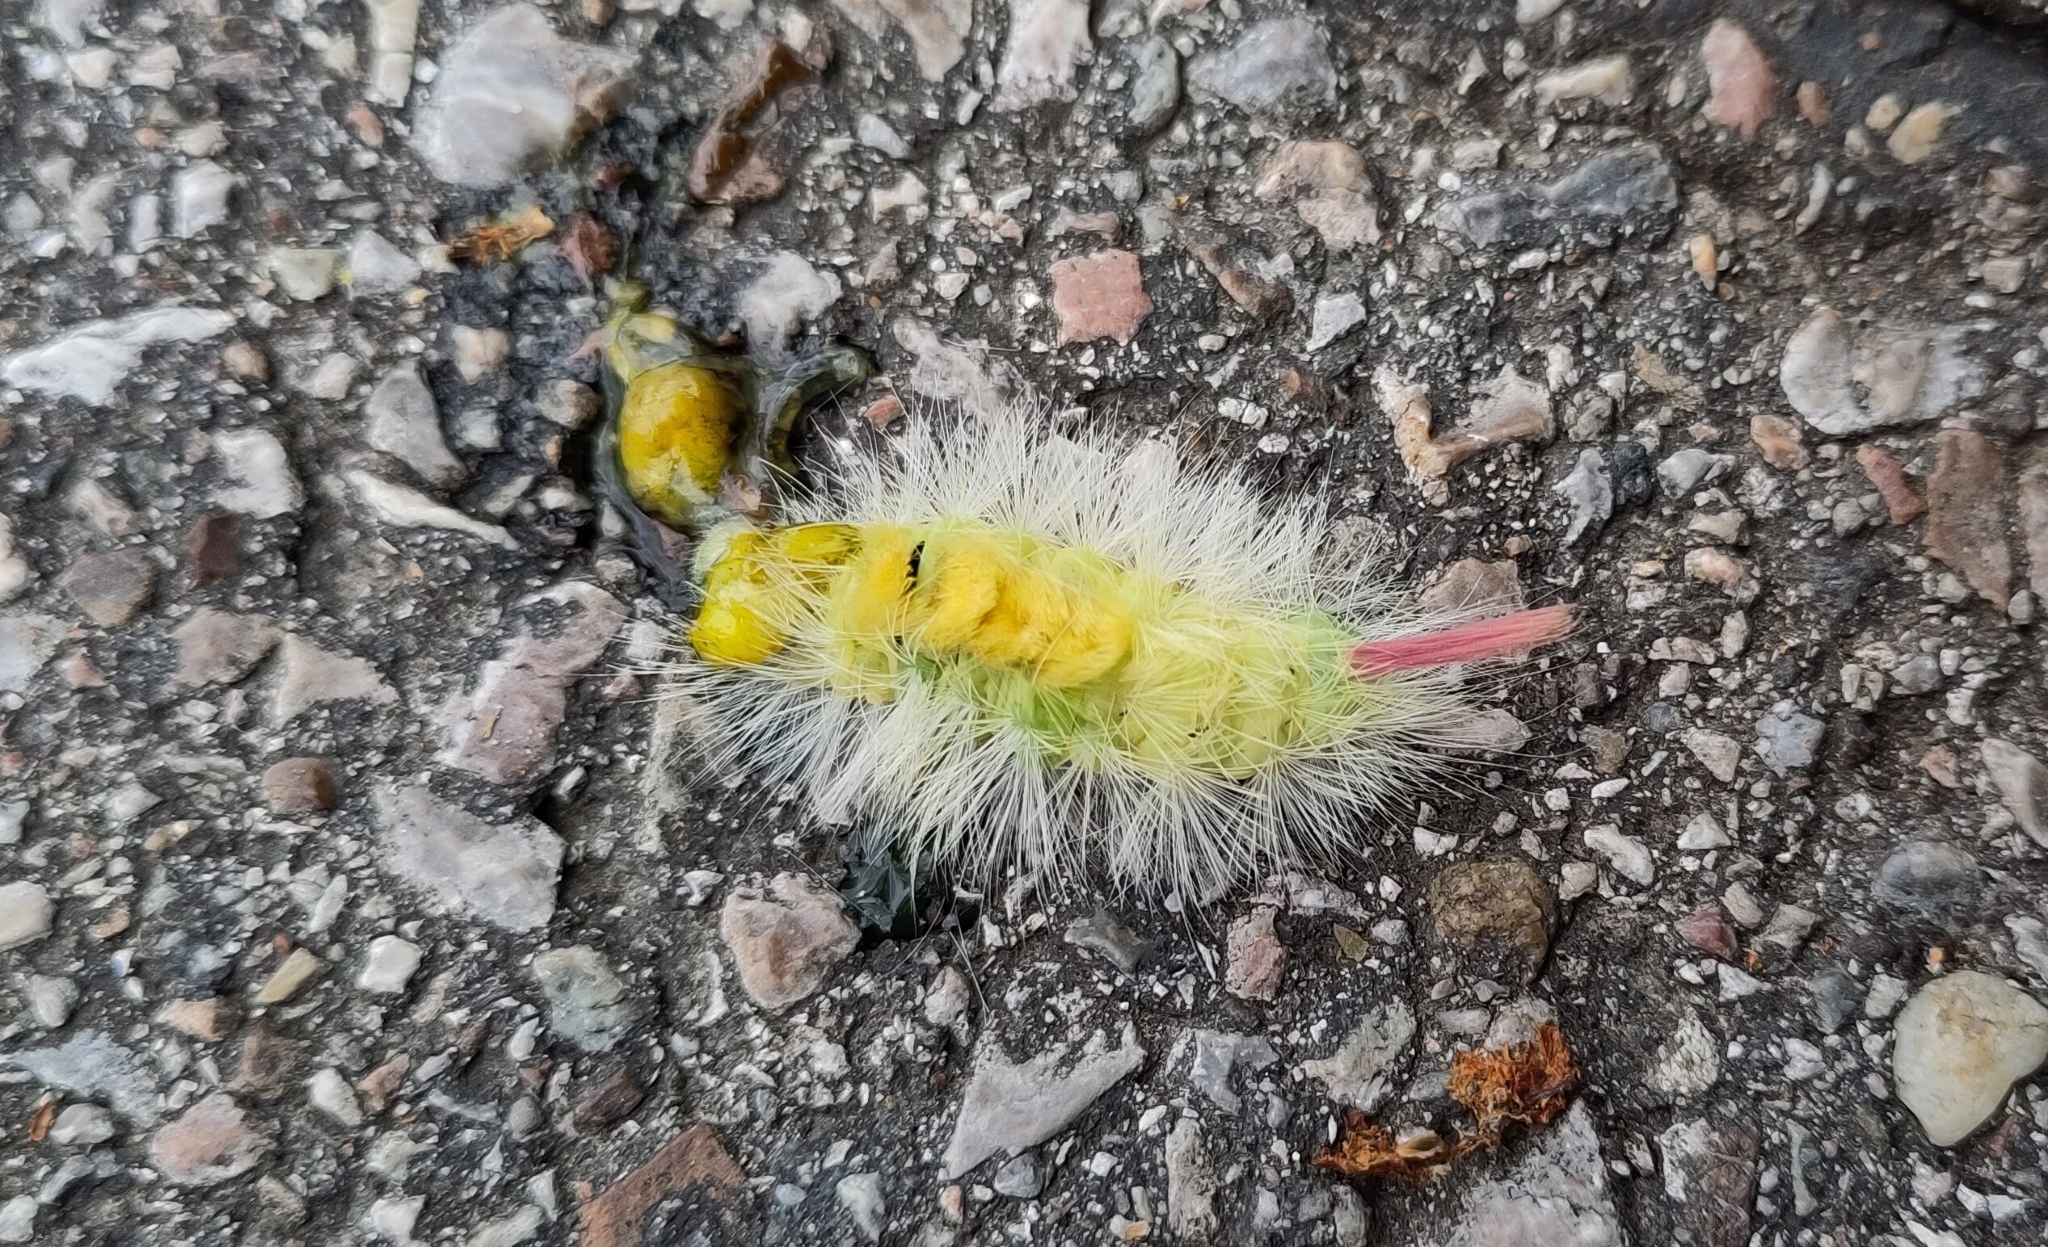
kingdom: Animalia
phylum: Arthropoda
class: Insecta
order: Lepidoptera
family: Erebidae
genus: Calliteara
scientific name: Calliteara pudibunda
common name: Pale tussock
